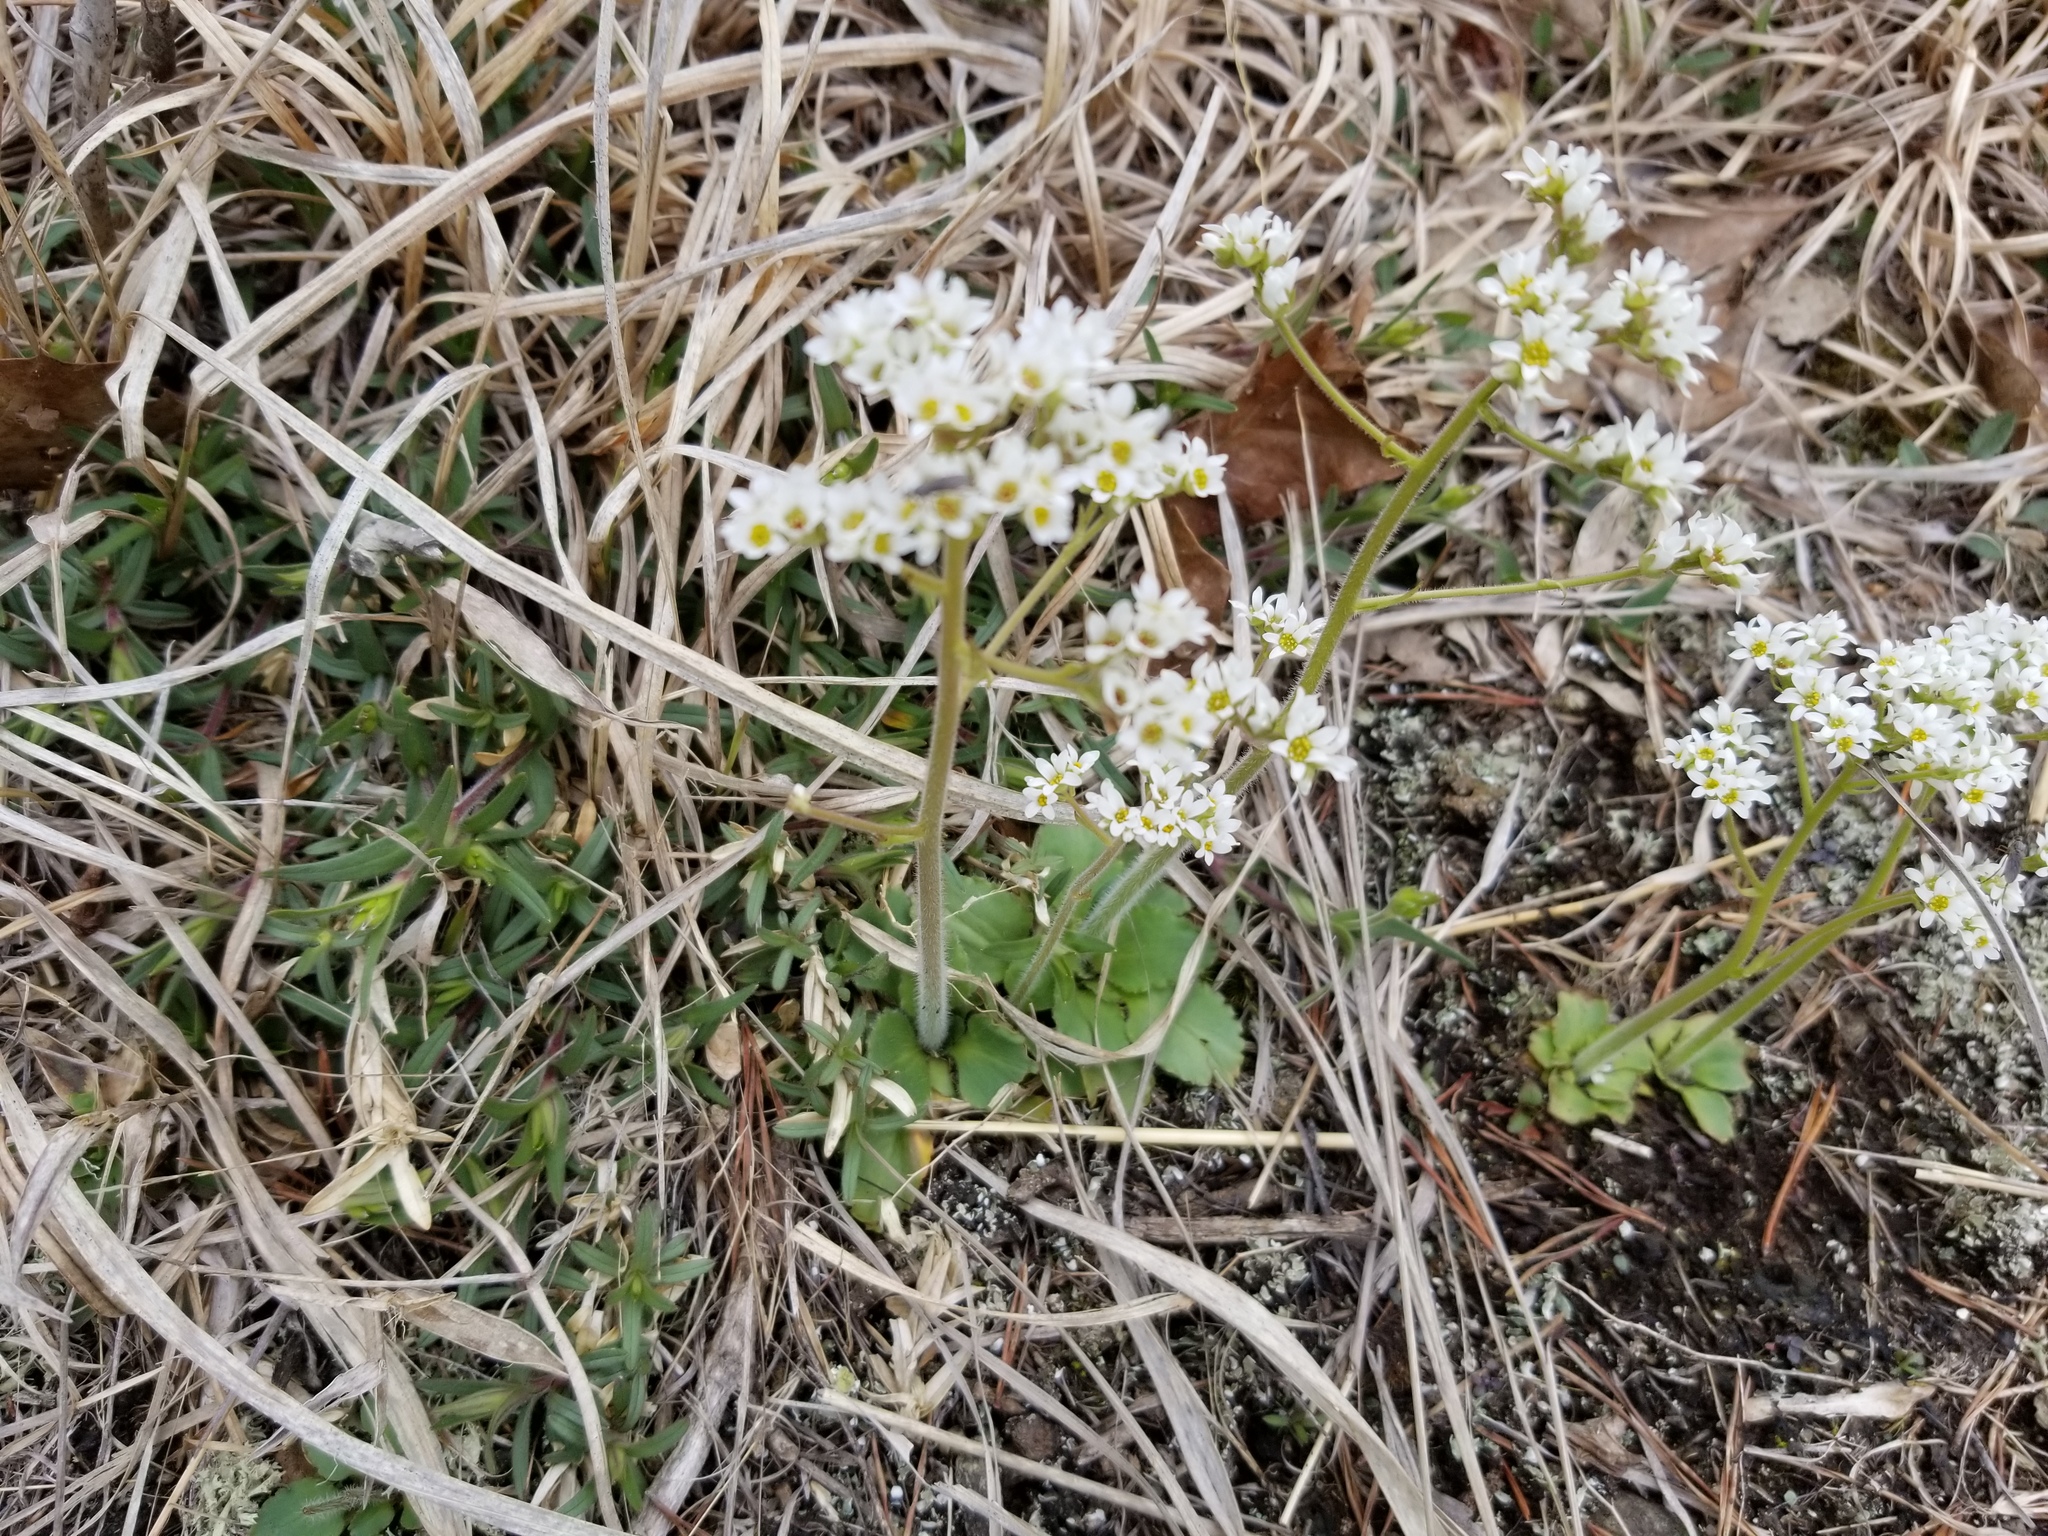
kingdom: Plantae
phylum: Tracheophyta
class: Magnoliopsida
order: Saxifragales
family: Saxifragaceae
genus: Micranthes
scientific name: Micranthes virginiensis
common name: Early saxifrage
